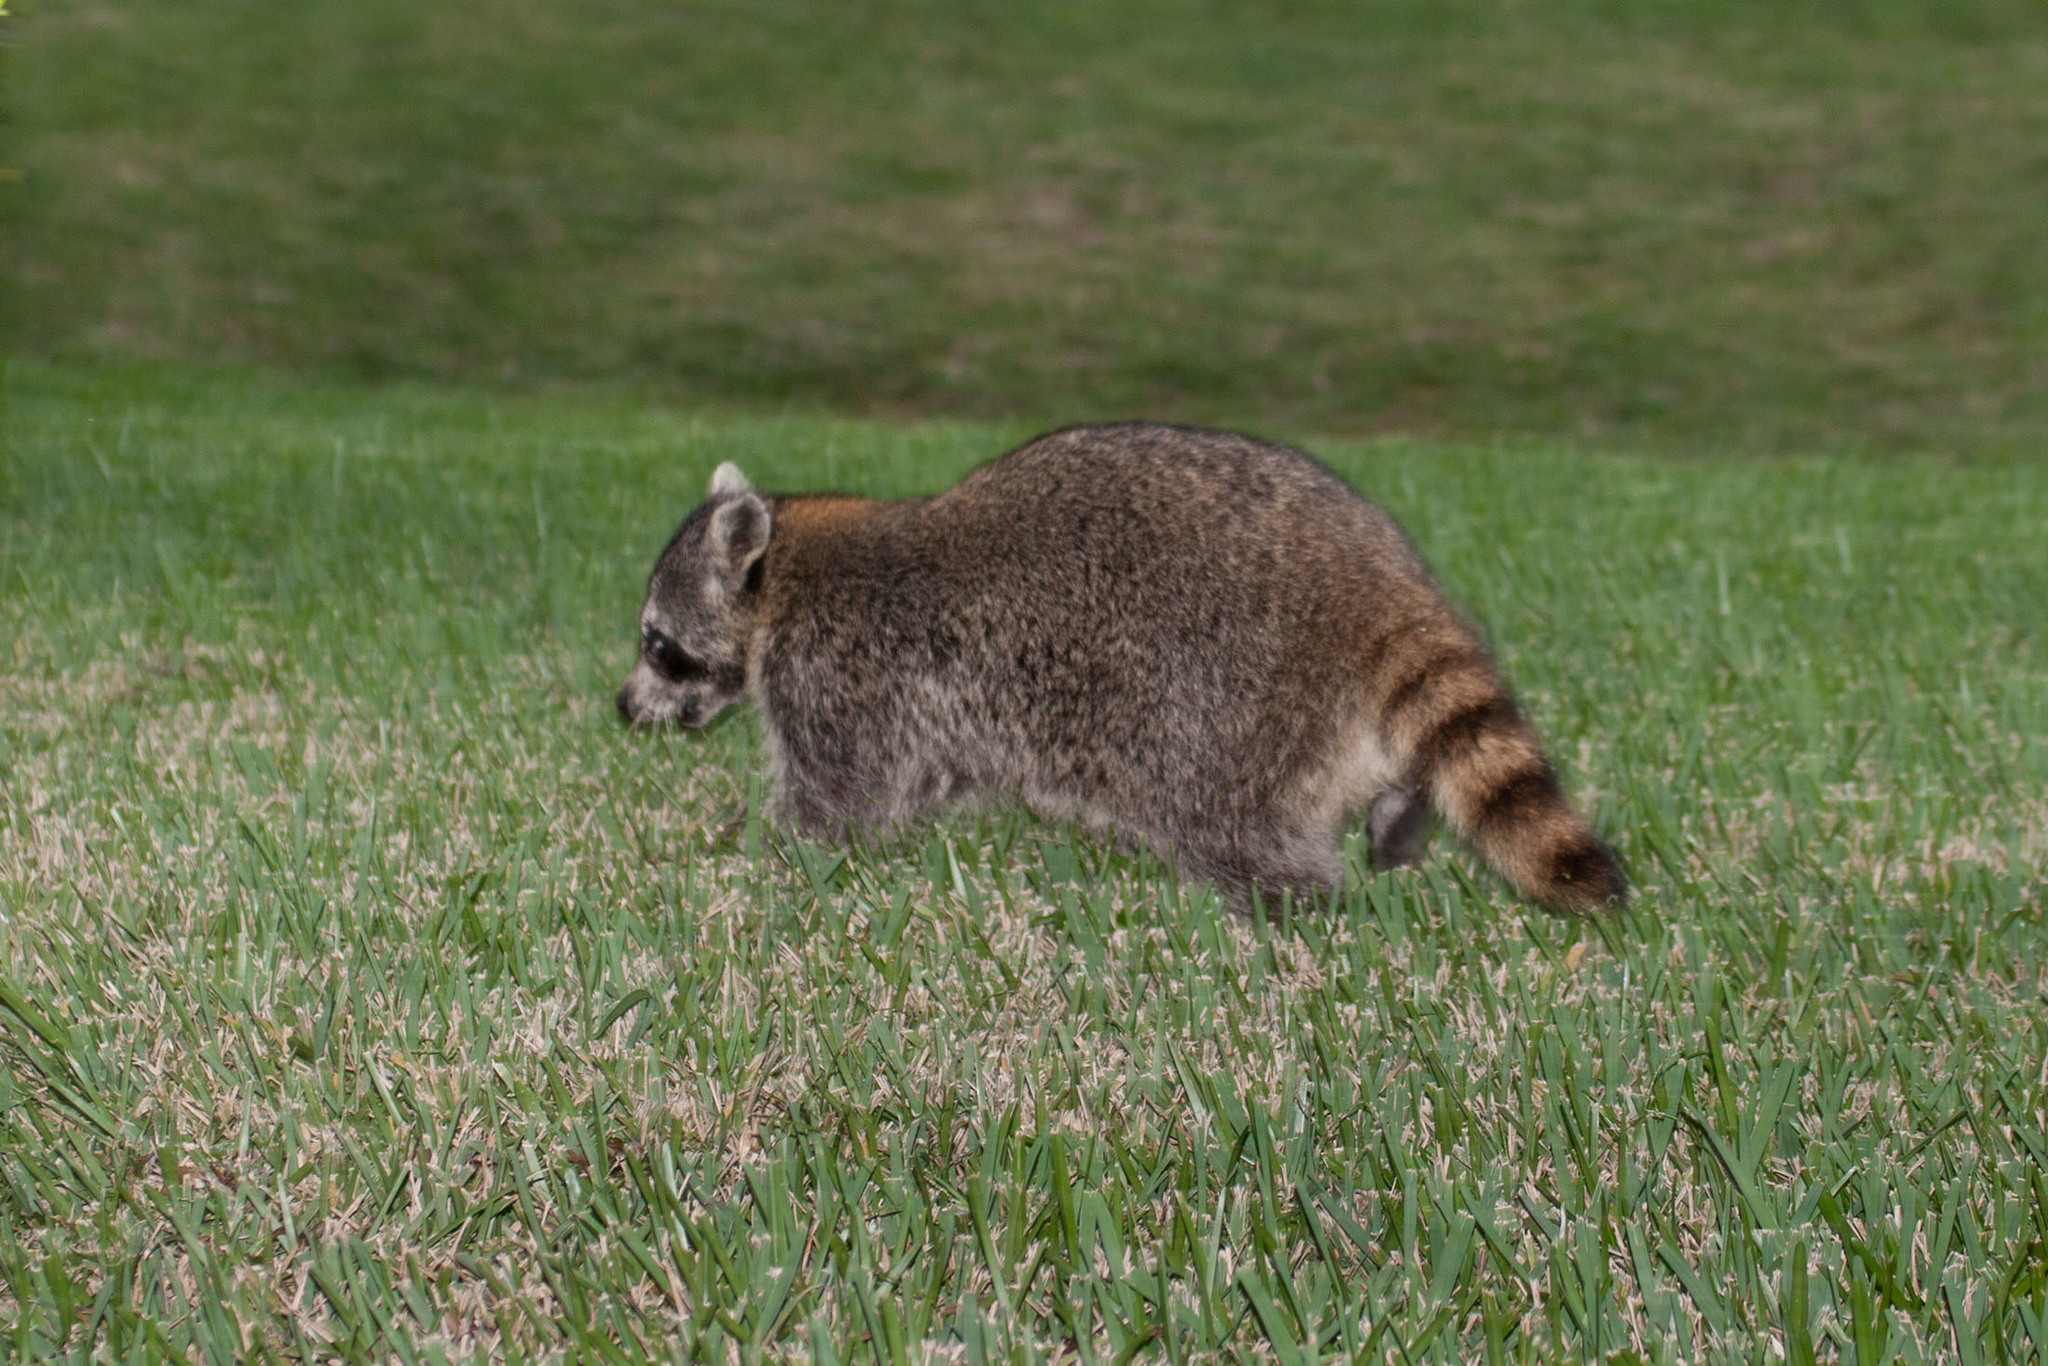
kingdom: Animalia
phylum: Chordata
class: Mammalia
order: Carnivora
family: Procyonidae
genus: Procyon
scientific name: Procyon lotor
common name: Raccoon
